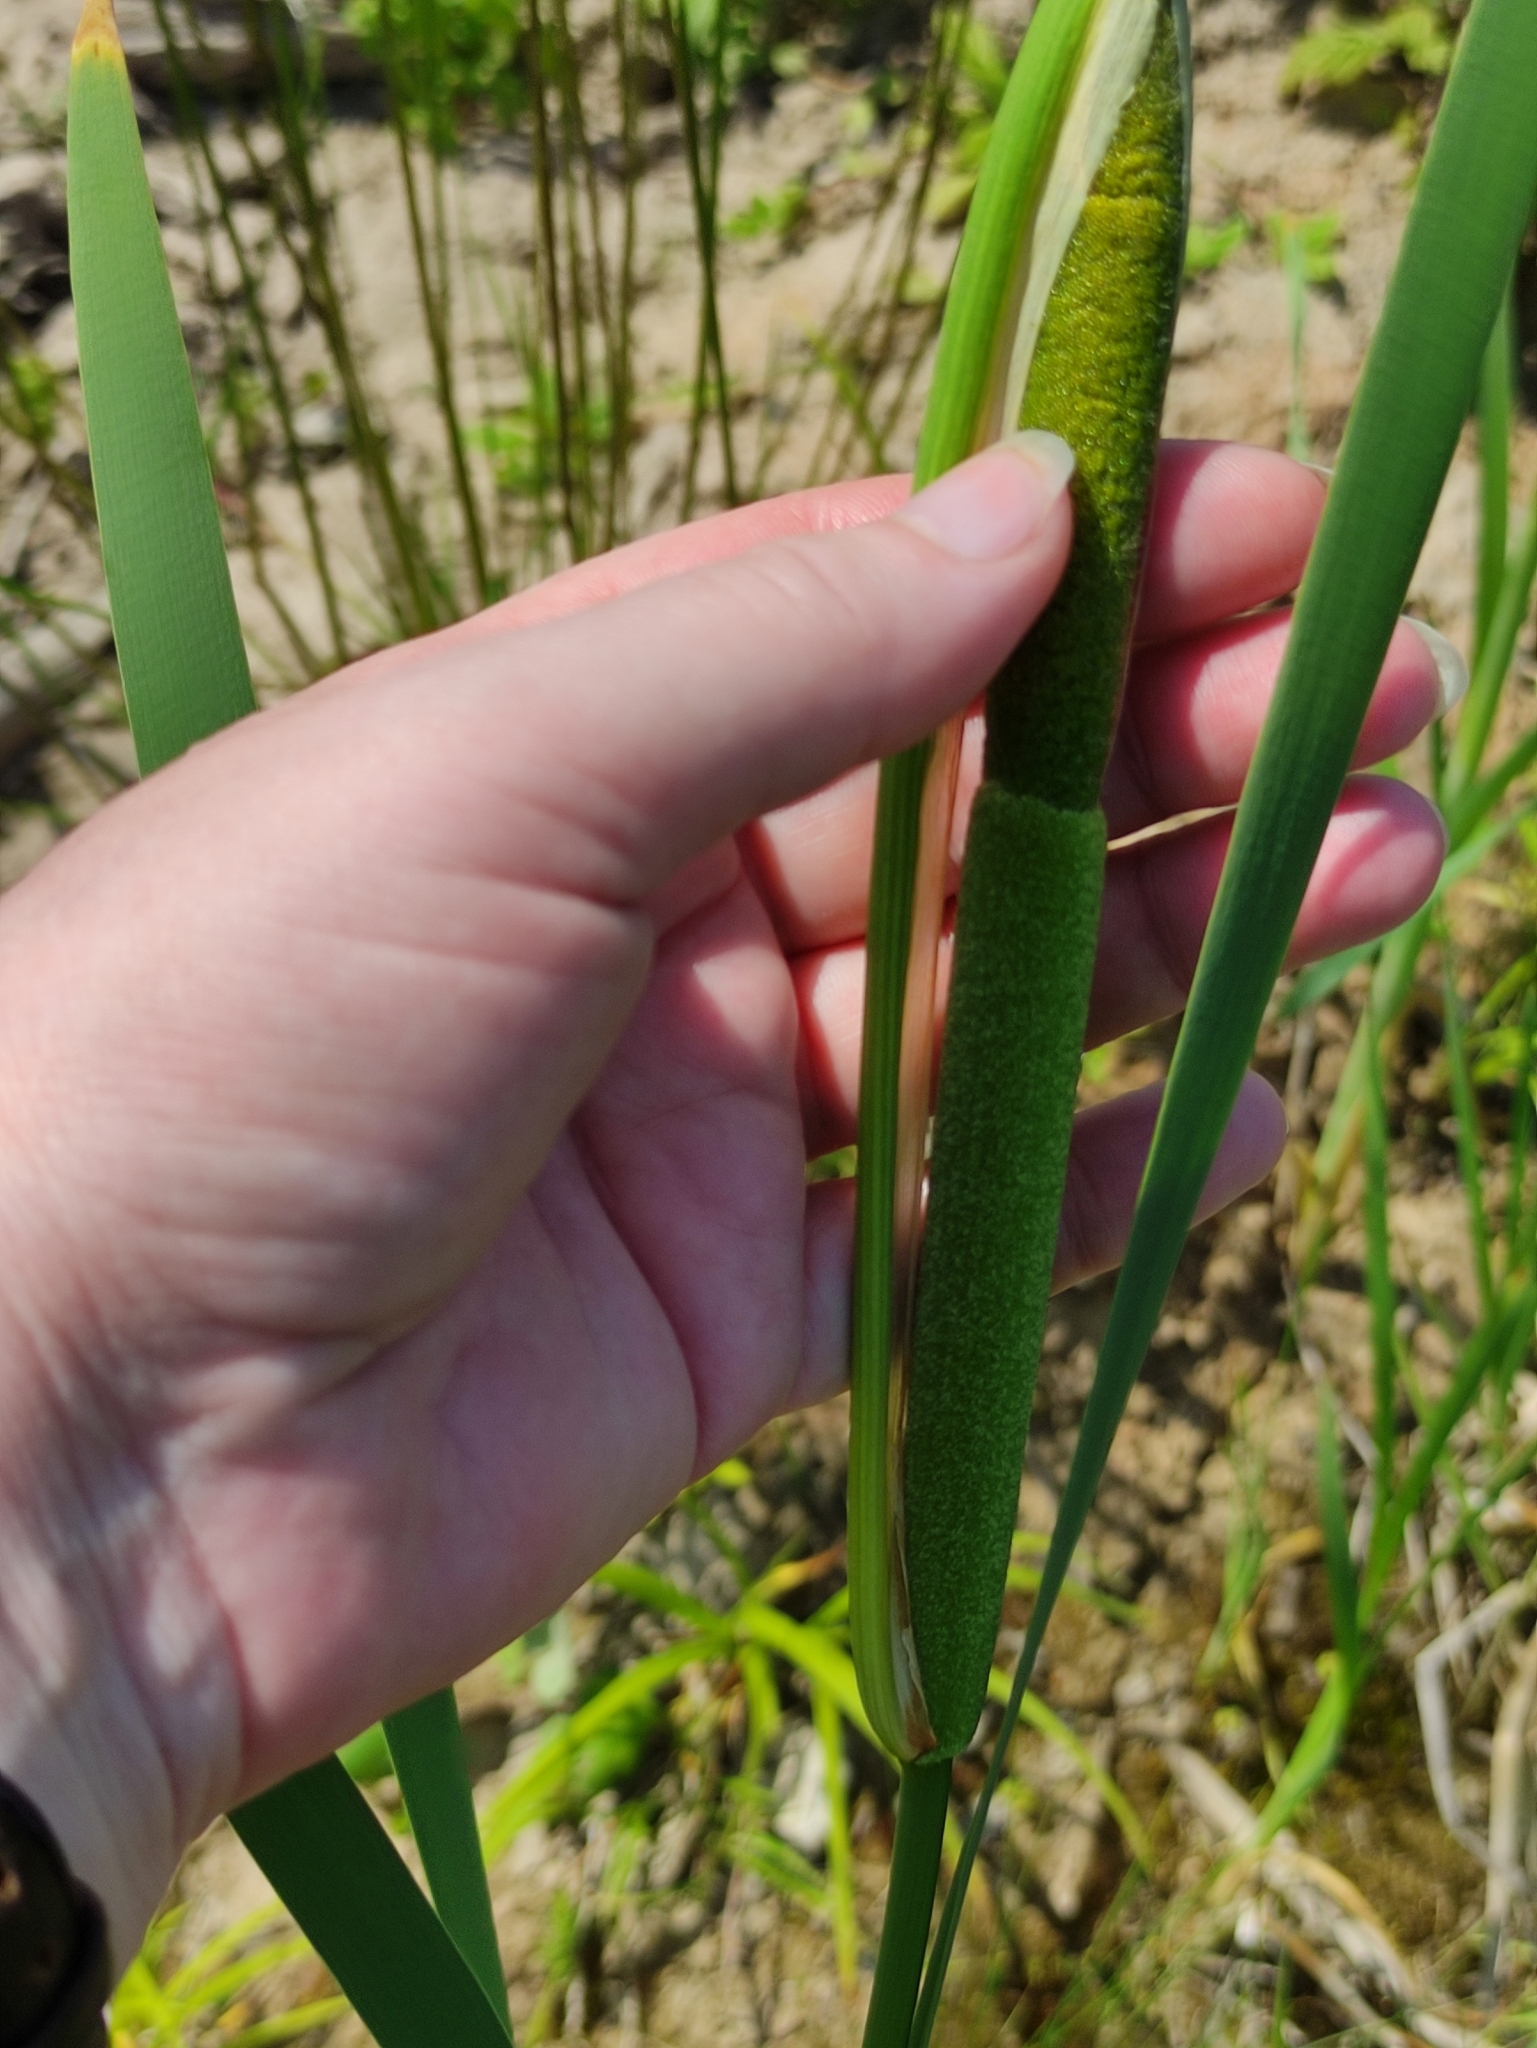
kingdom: Plantae
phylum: Tracheophyta
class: Liliopsida
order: Poales
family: Typhaceae
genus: Typha
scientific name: Typha latifolia
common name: Broadleaf cattail
